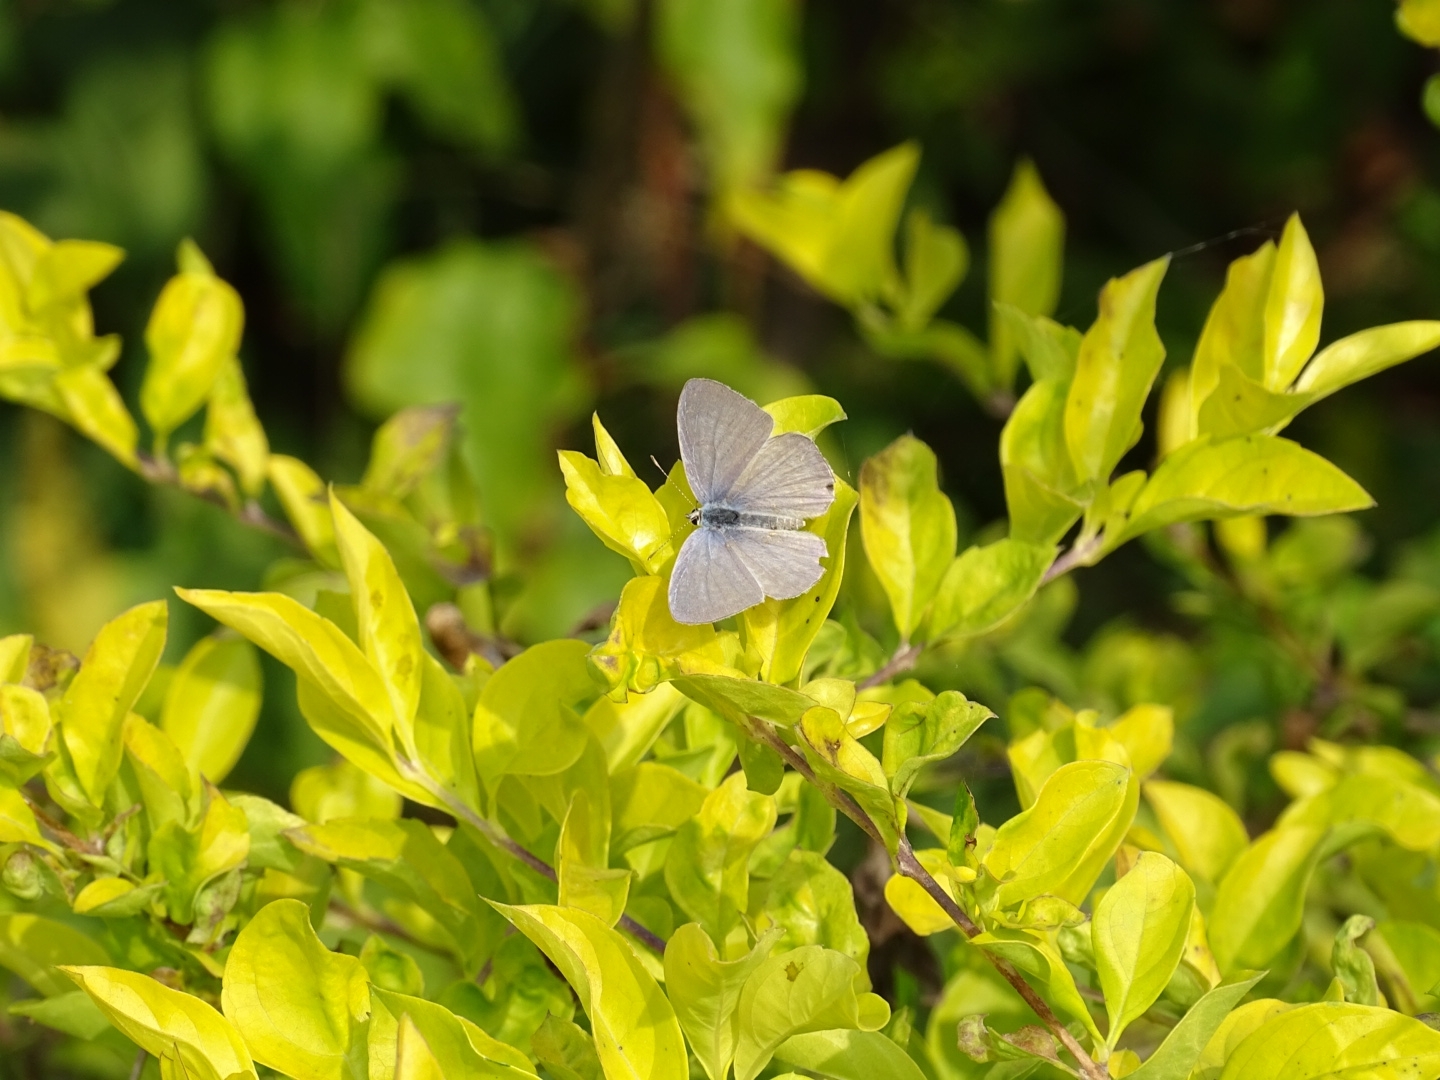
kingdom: Animalia
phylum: Arthropoda
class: Insecta
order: Lepidoptera
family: Lycaenidae
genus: Catochrysops
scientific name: Catochrysops strabo
